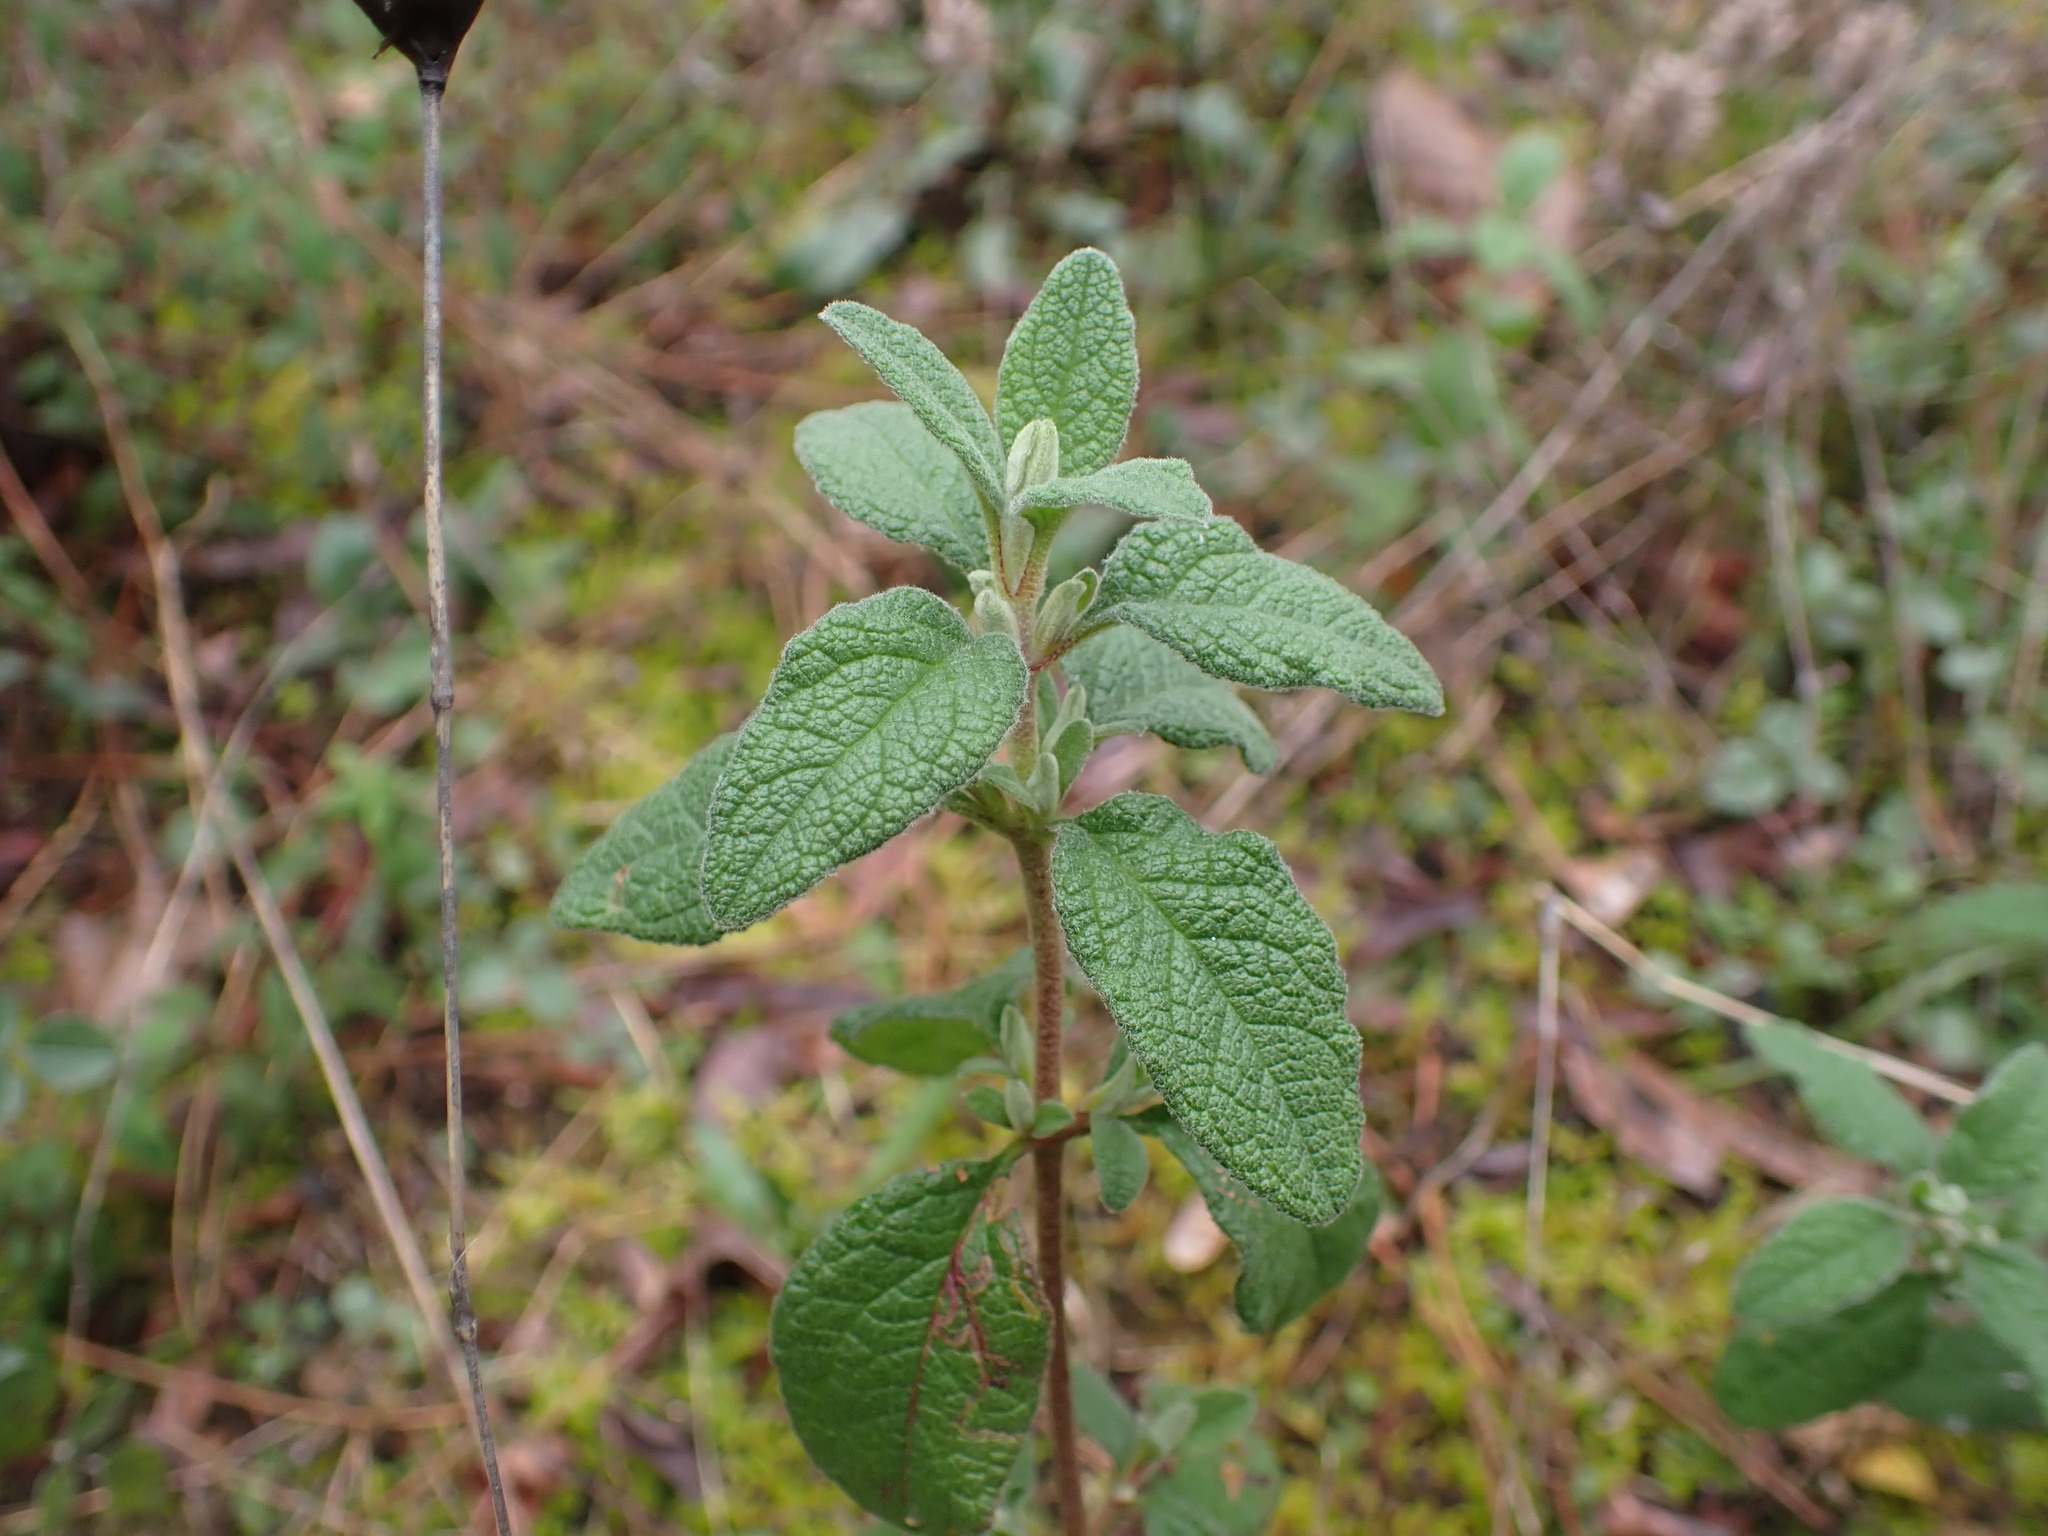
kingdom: Plantae
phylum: Tracheophyta
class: Magnoliopsida
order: Malvales
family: Cistaceae
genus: Cistus
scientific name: Cistus salviifolius
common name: Salvia cistus
